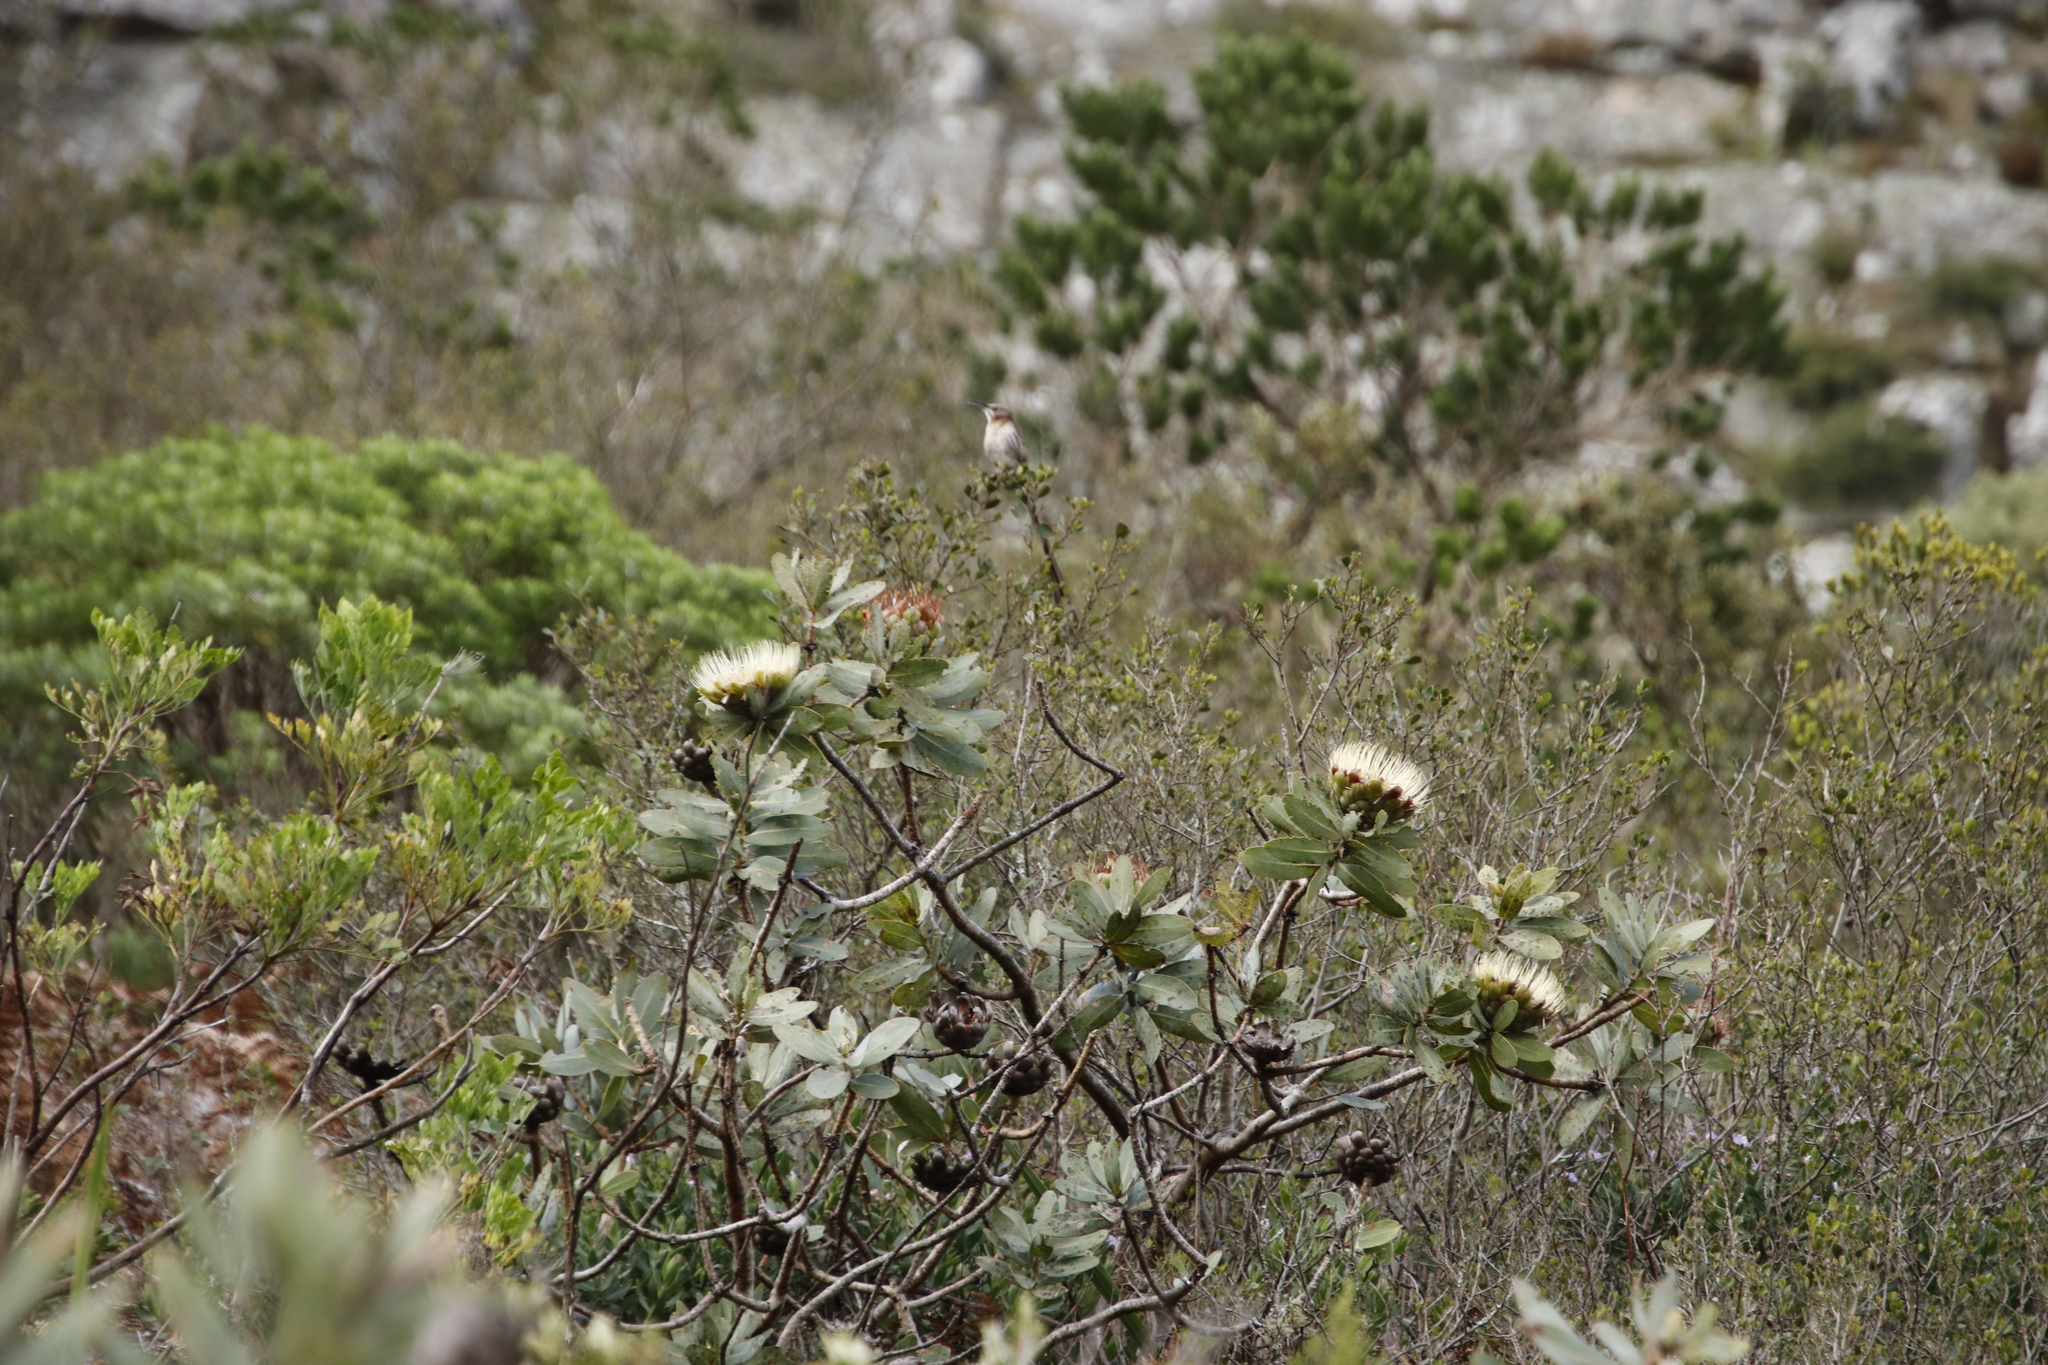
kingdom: Plantae
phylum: Tracheophyta
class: Magnoliopsida
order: Proteales
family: Proteaceae
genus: Protea
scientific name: Protea nitida
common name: Tree protea
